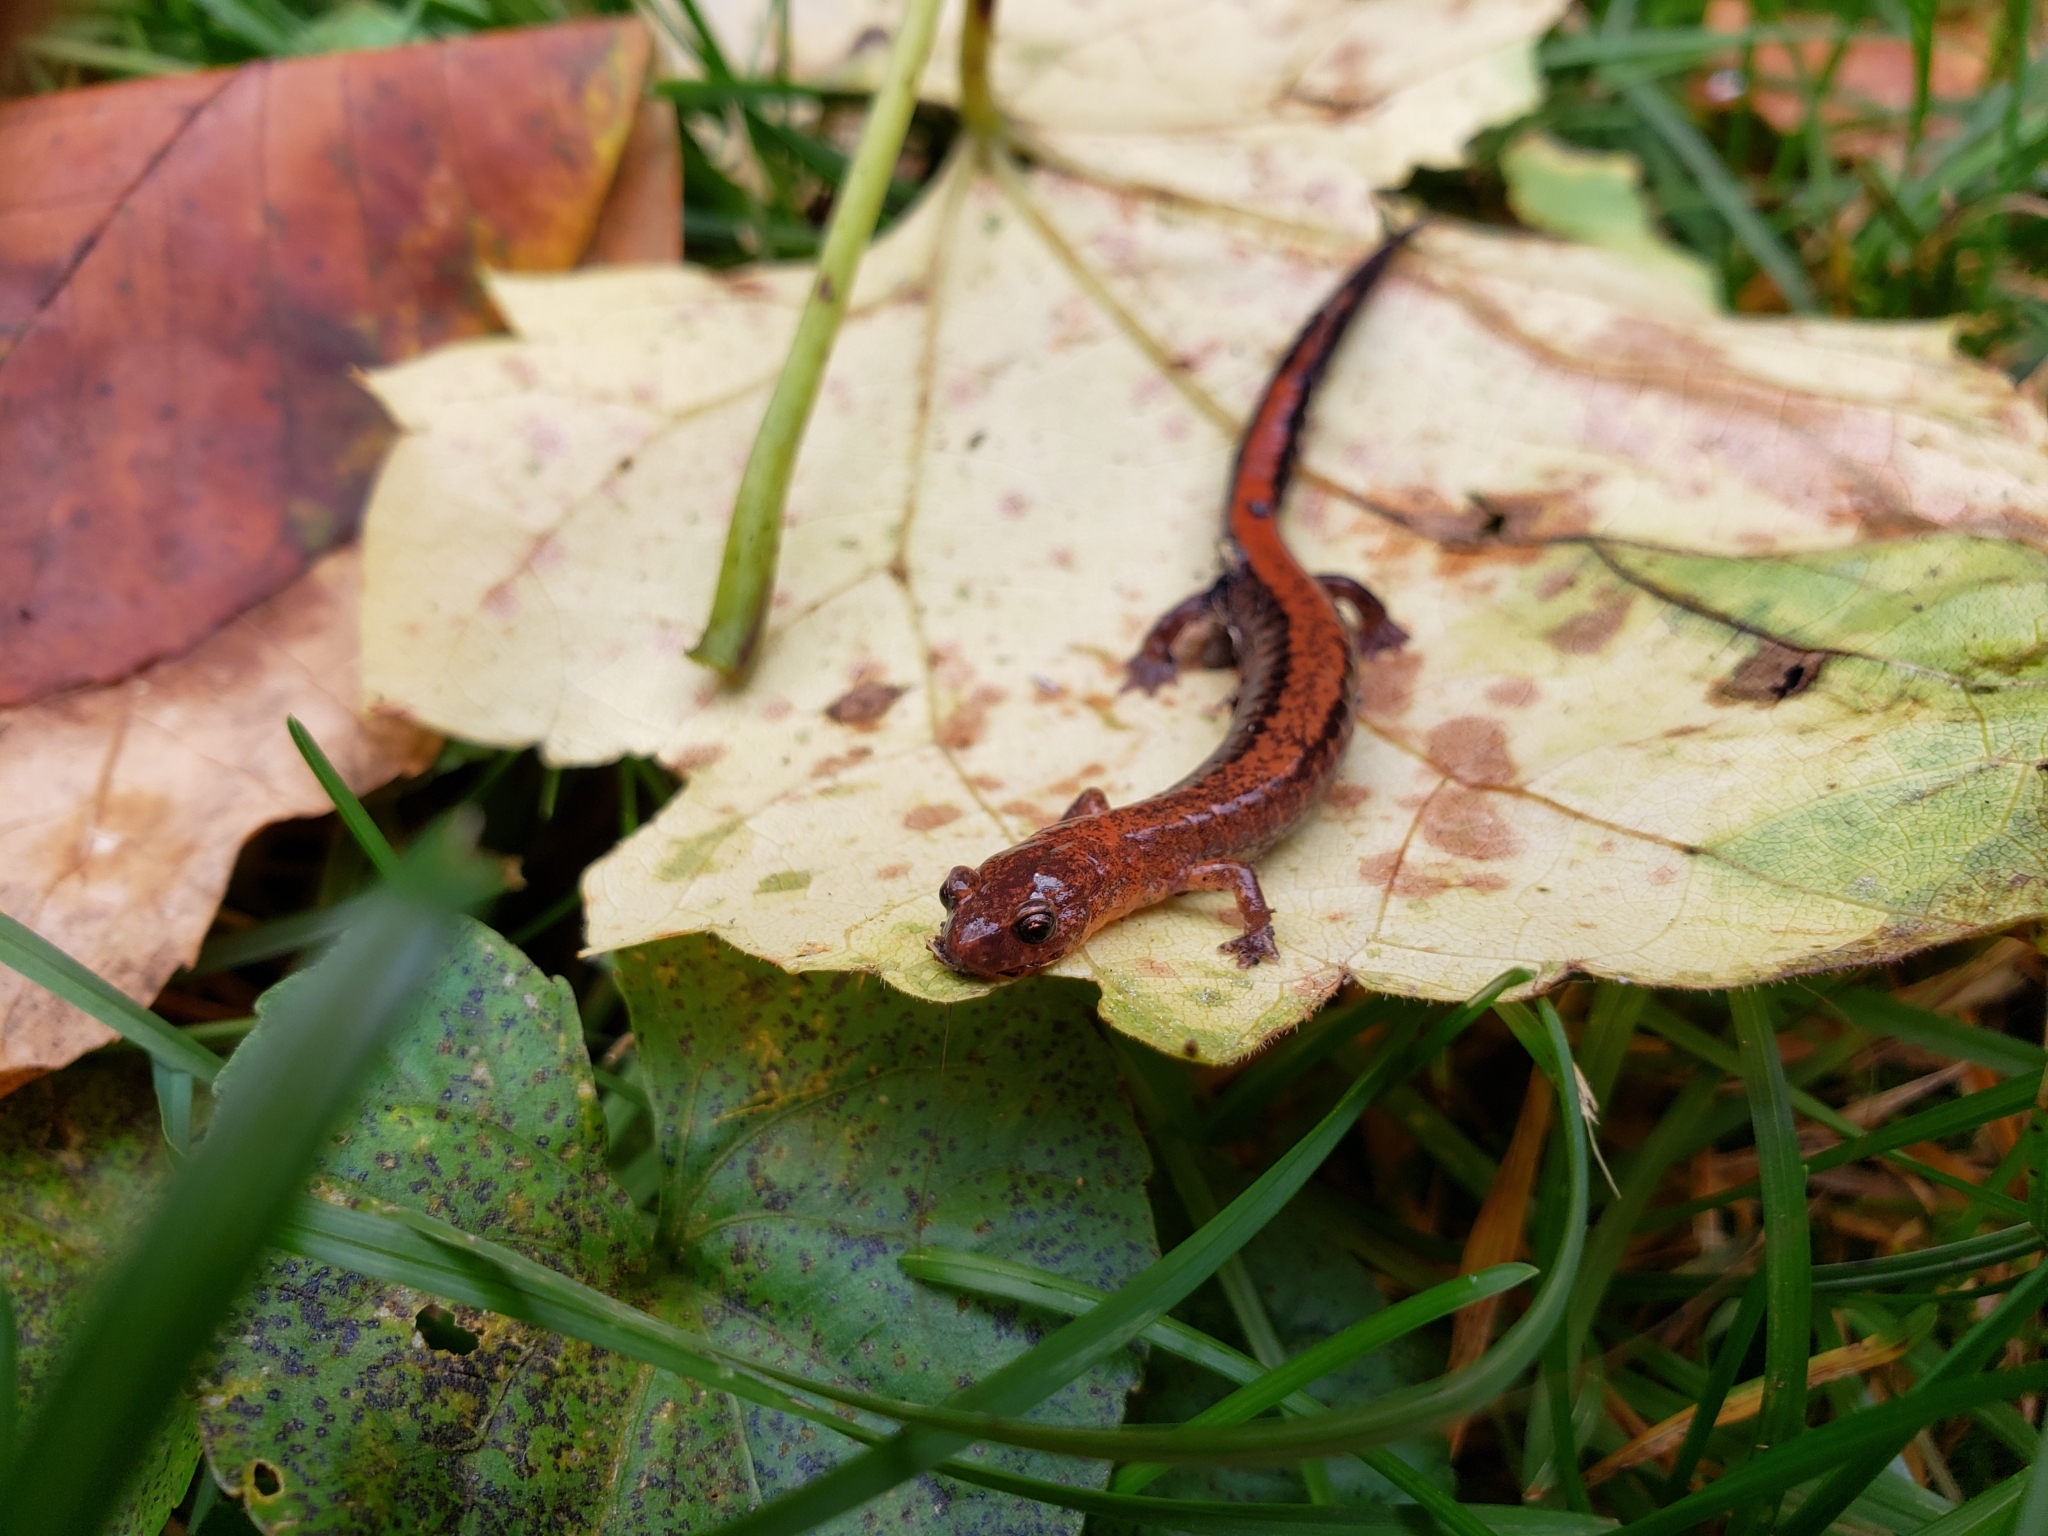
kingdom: Animalia
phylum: Chordata
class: Amphibia
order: Caudata
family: Plethodontidae
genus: Plethodon
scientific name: Plethodon cinereus
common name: Redback salamander
